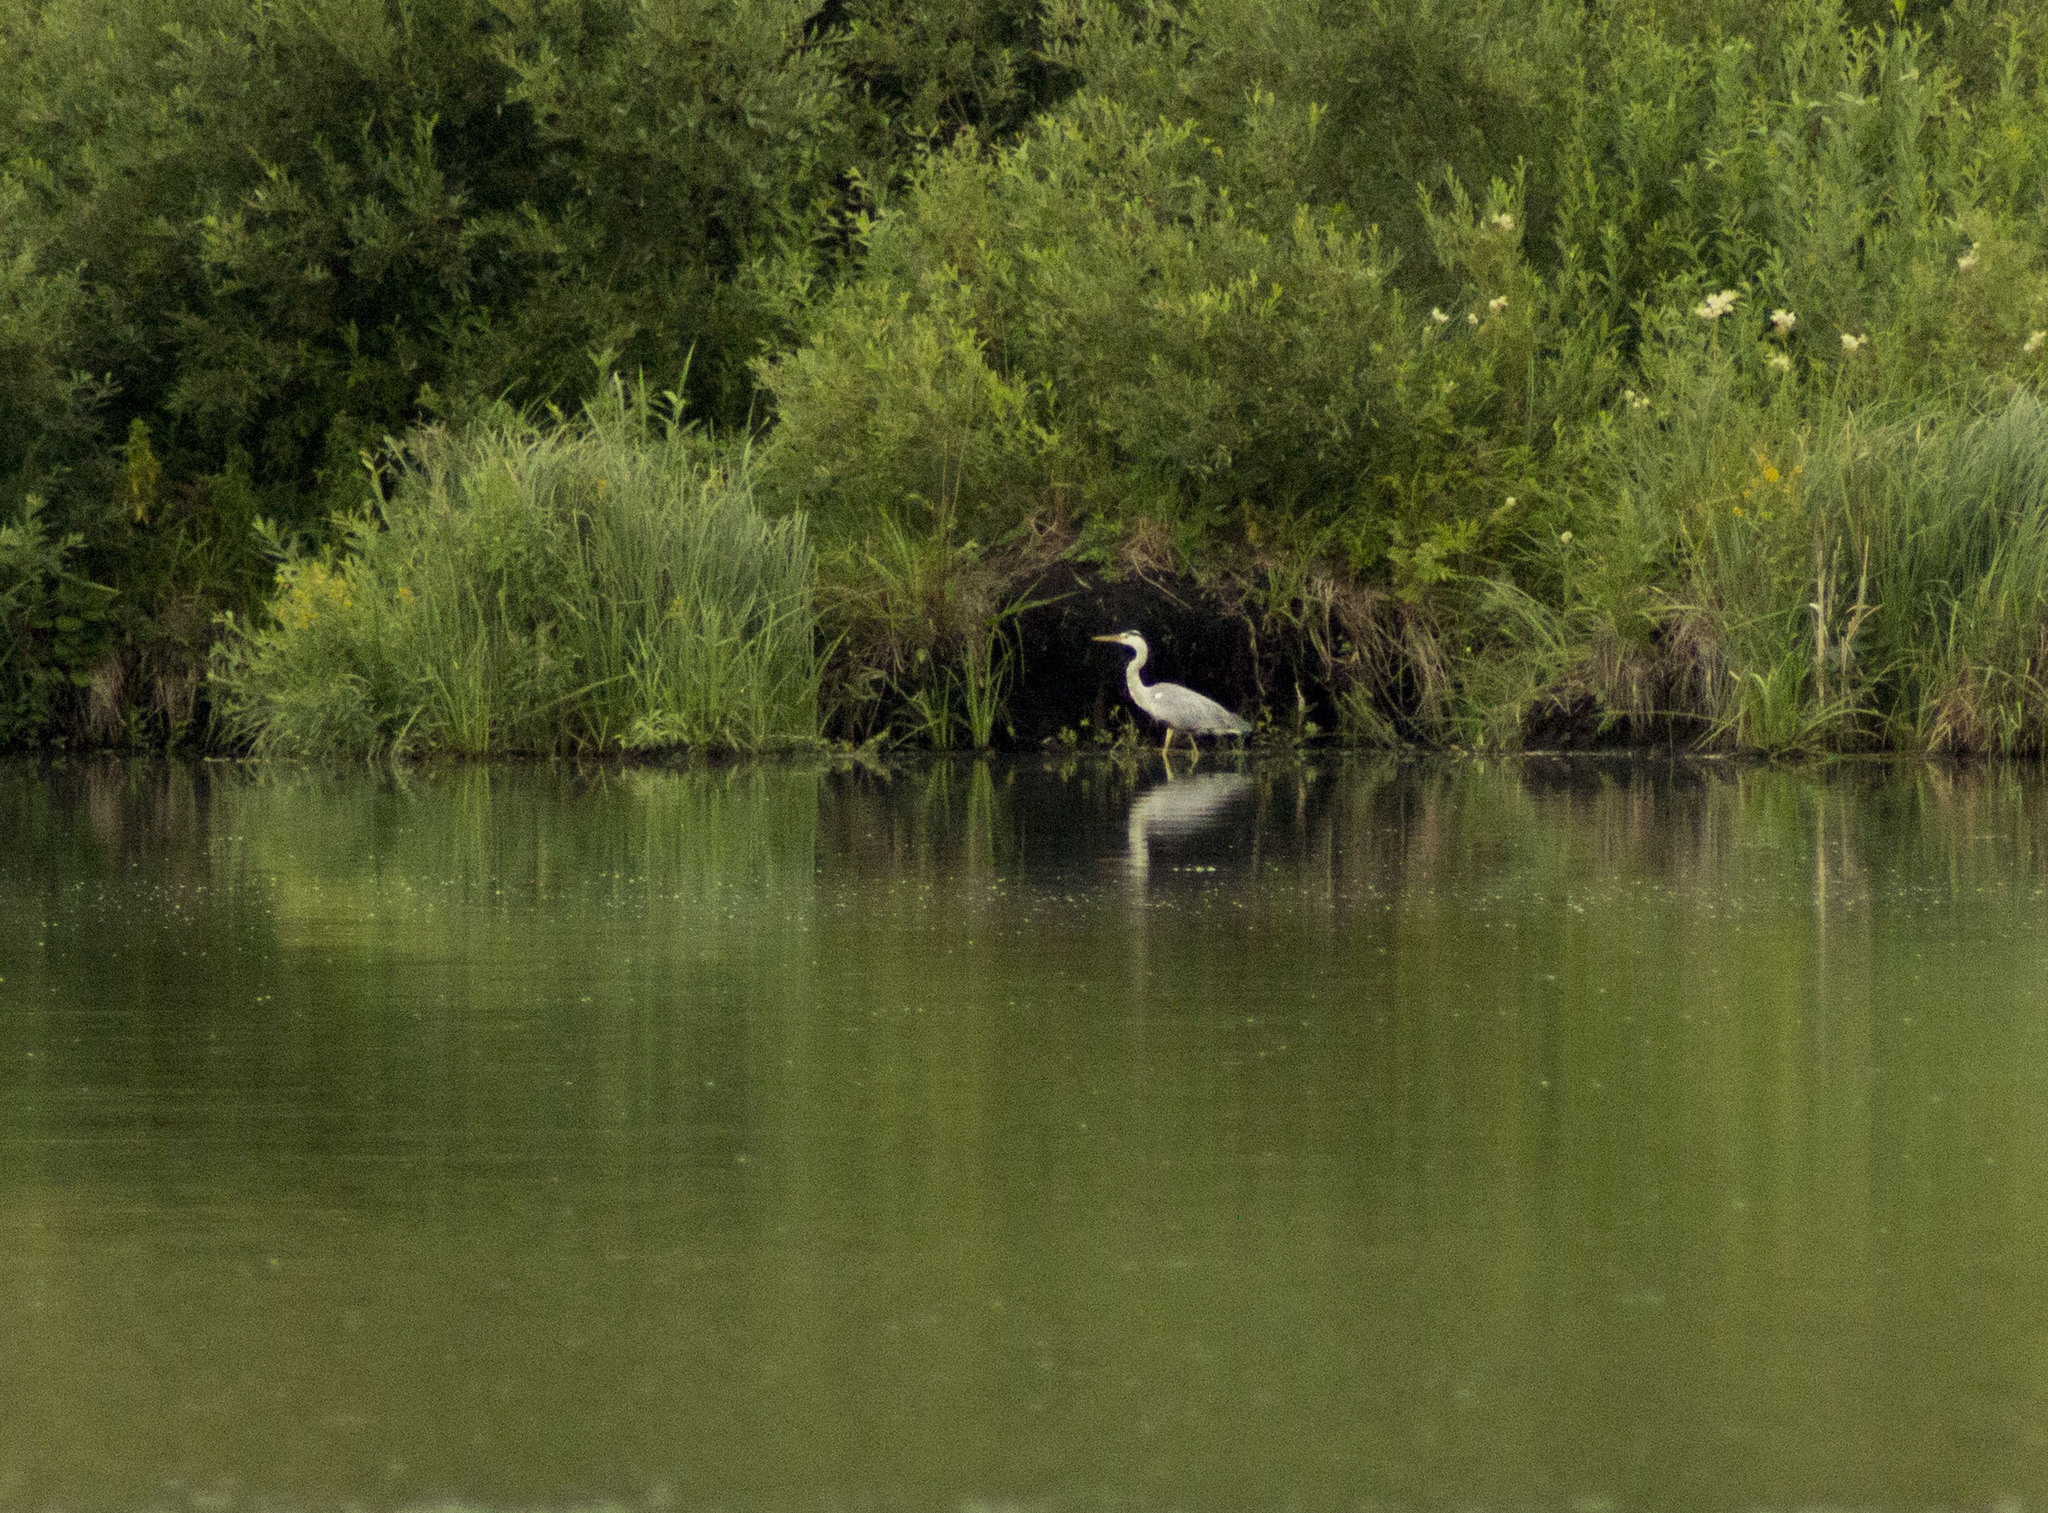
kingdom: Animalia
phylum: Chordata
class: Aves
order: Pelecaniformes
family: Ardeidae
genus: Ardea
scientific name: Ardea cinerea
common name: Grey heron
